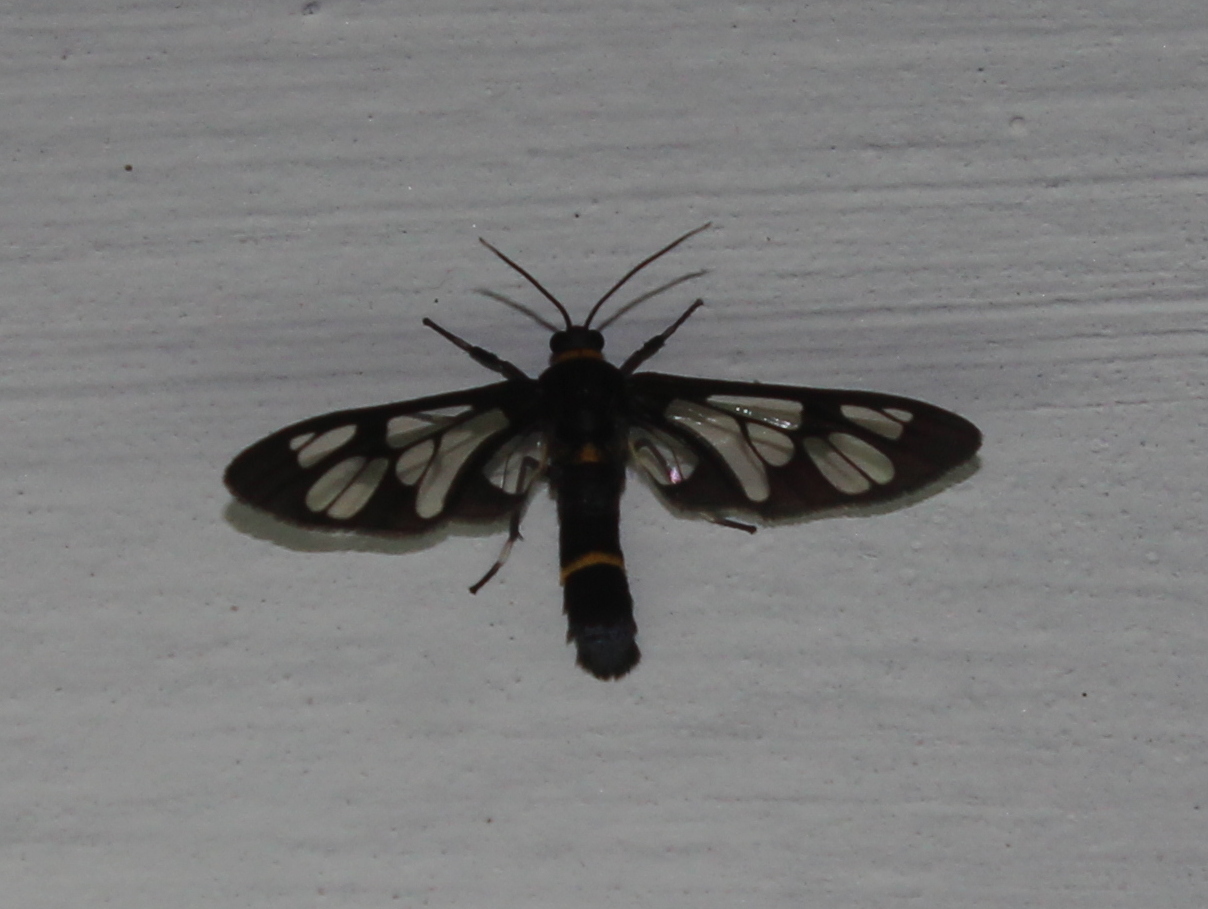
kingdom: Animalia
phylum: Arthropoda
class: Insecta
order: Lepidoptera
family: Erebidae
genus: Syntomoides
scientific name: Syntomoides imaon
